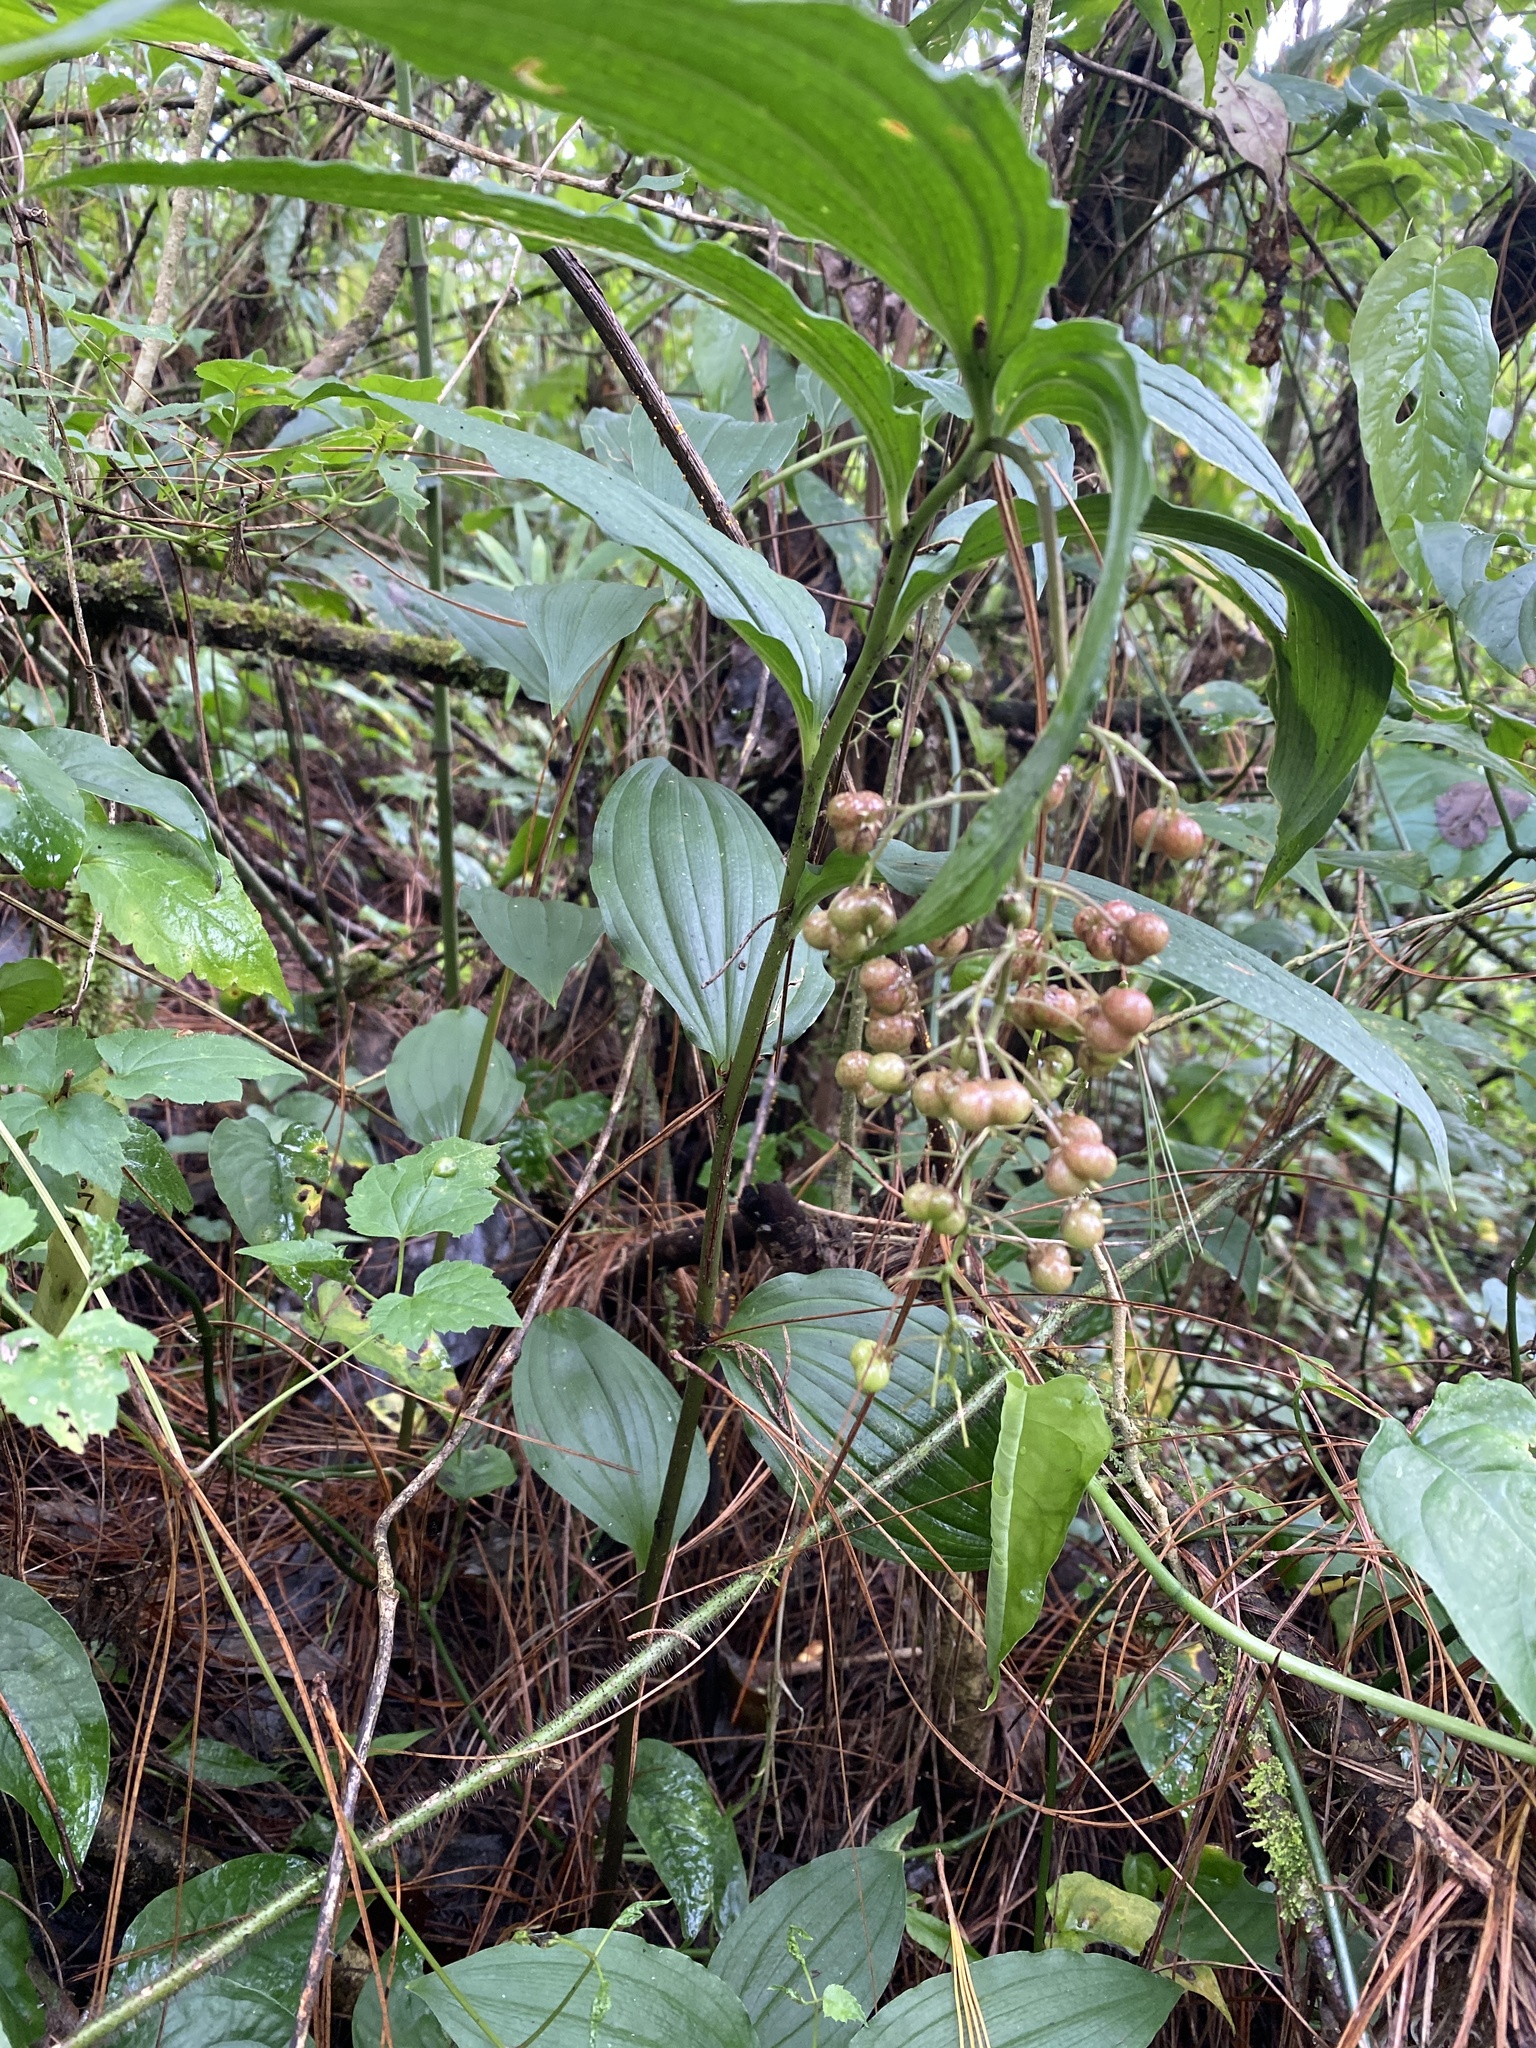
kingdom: Plantae
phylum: Tracheophyta
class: Liliopsida
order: Asparagales
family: Asparagaceae
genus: Maianthemum
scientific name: Maianthemum flexuosum
